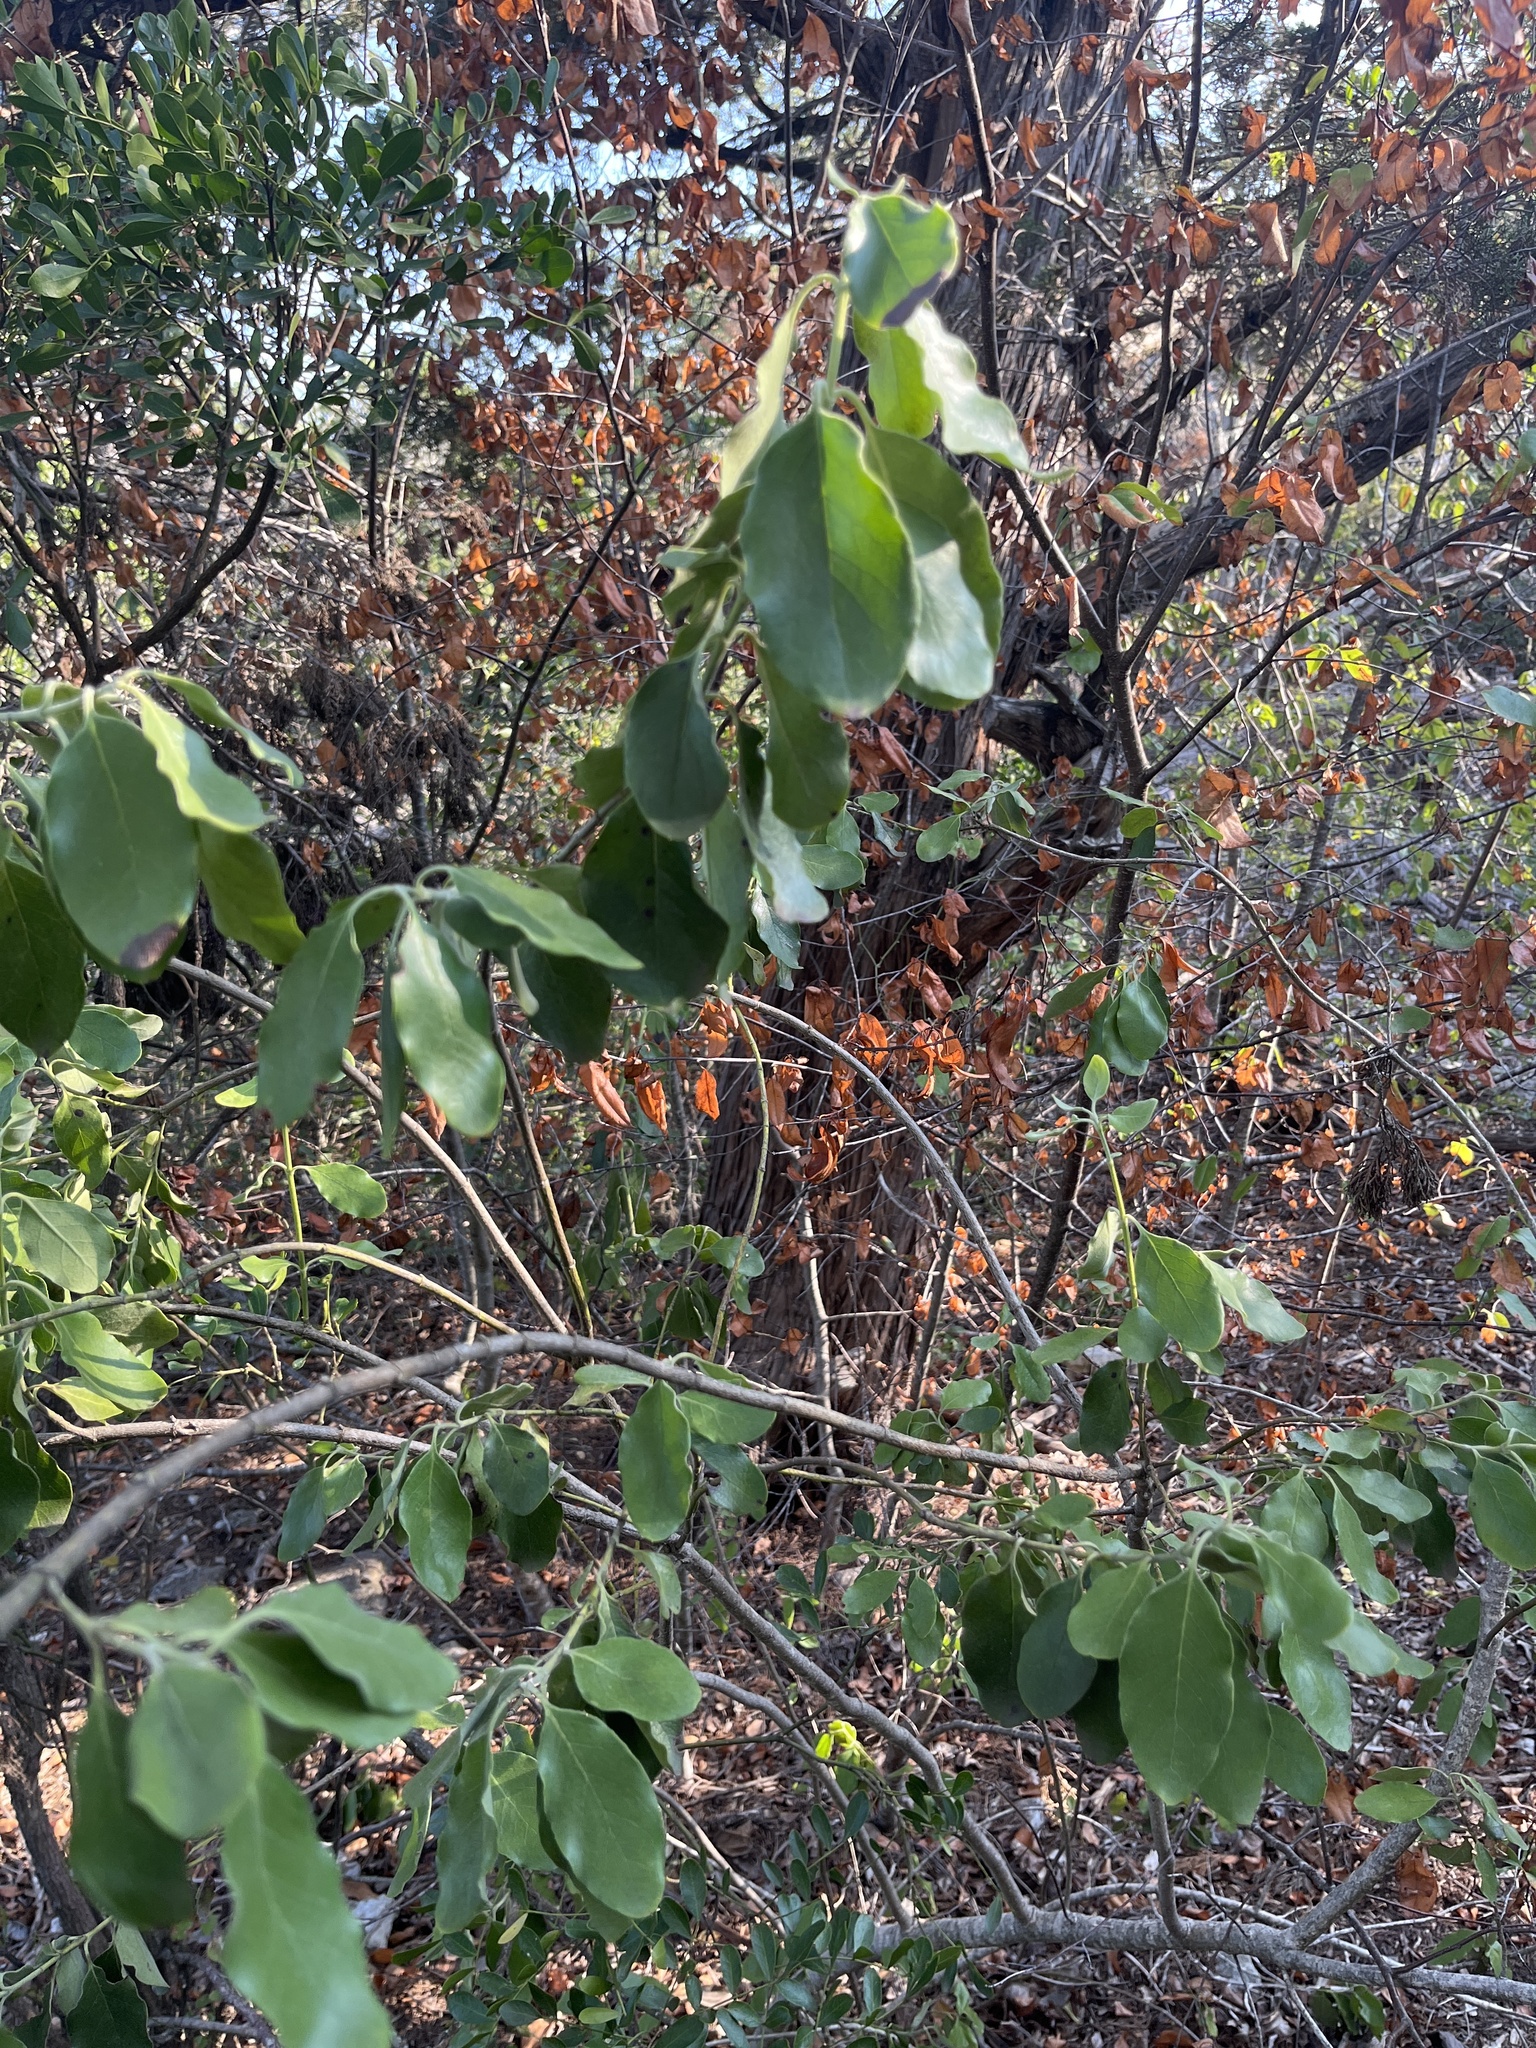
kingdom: Plantae
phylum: Tracheophyta
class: Magnoliopsida
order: Garryales
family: Garryaceae
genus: Garrya
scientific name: Garrya lindheimeri
